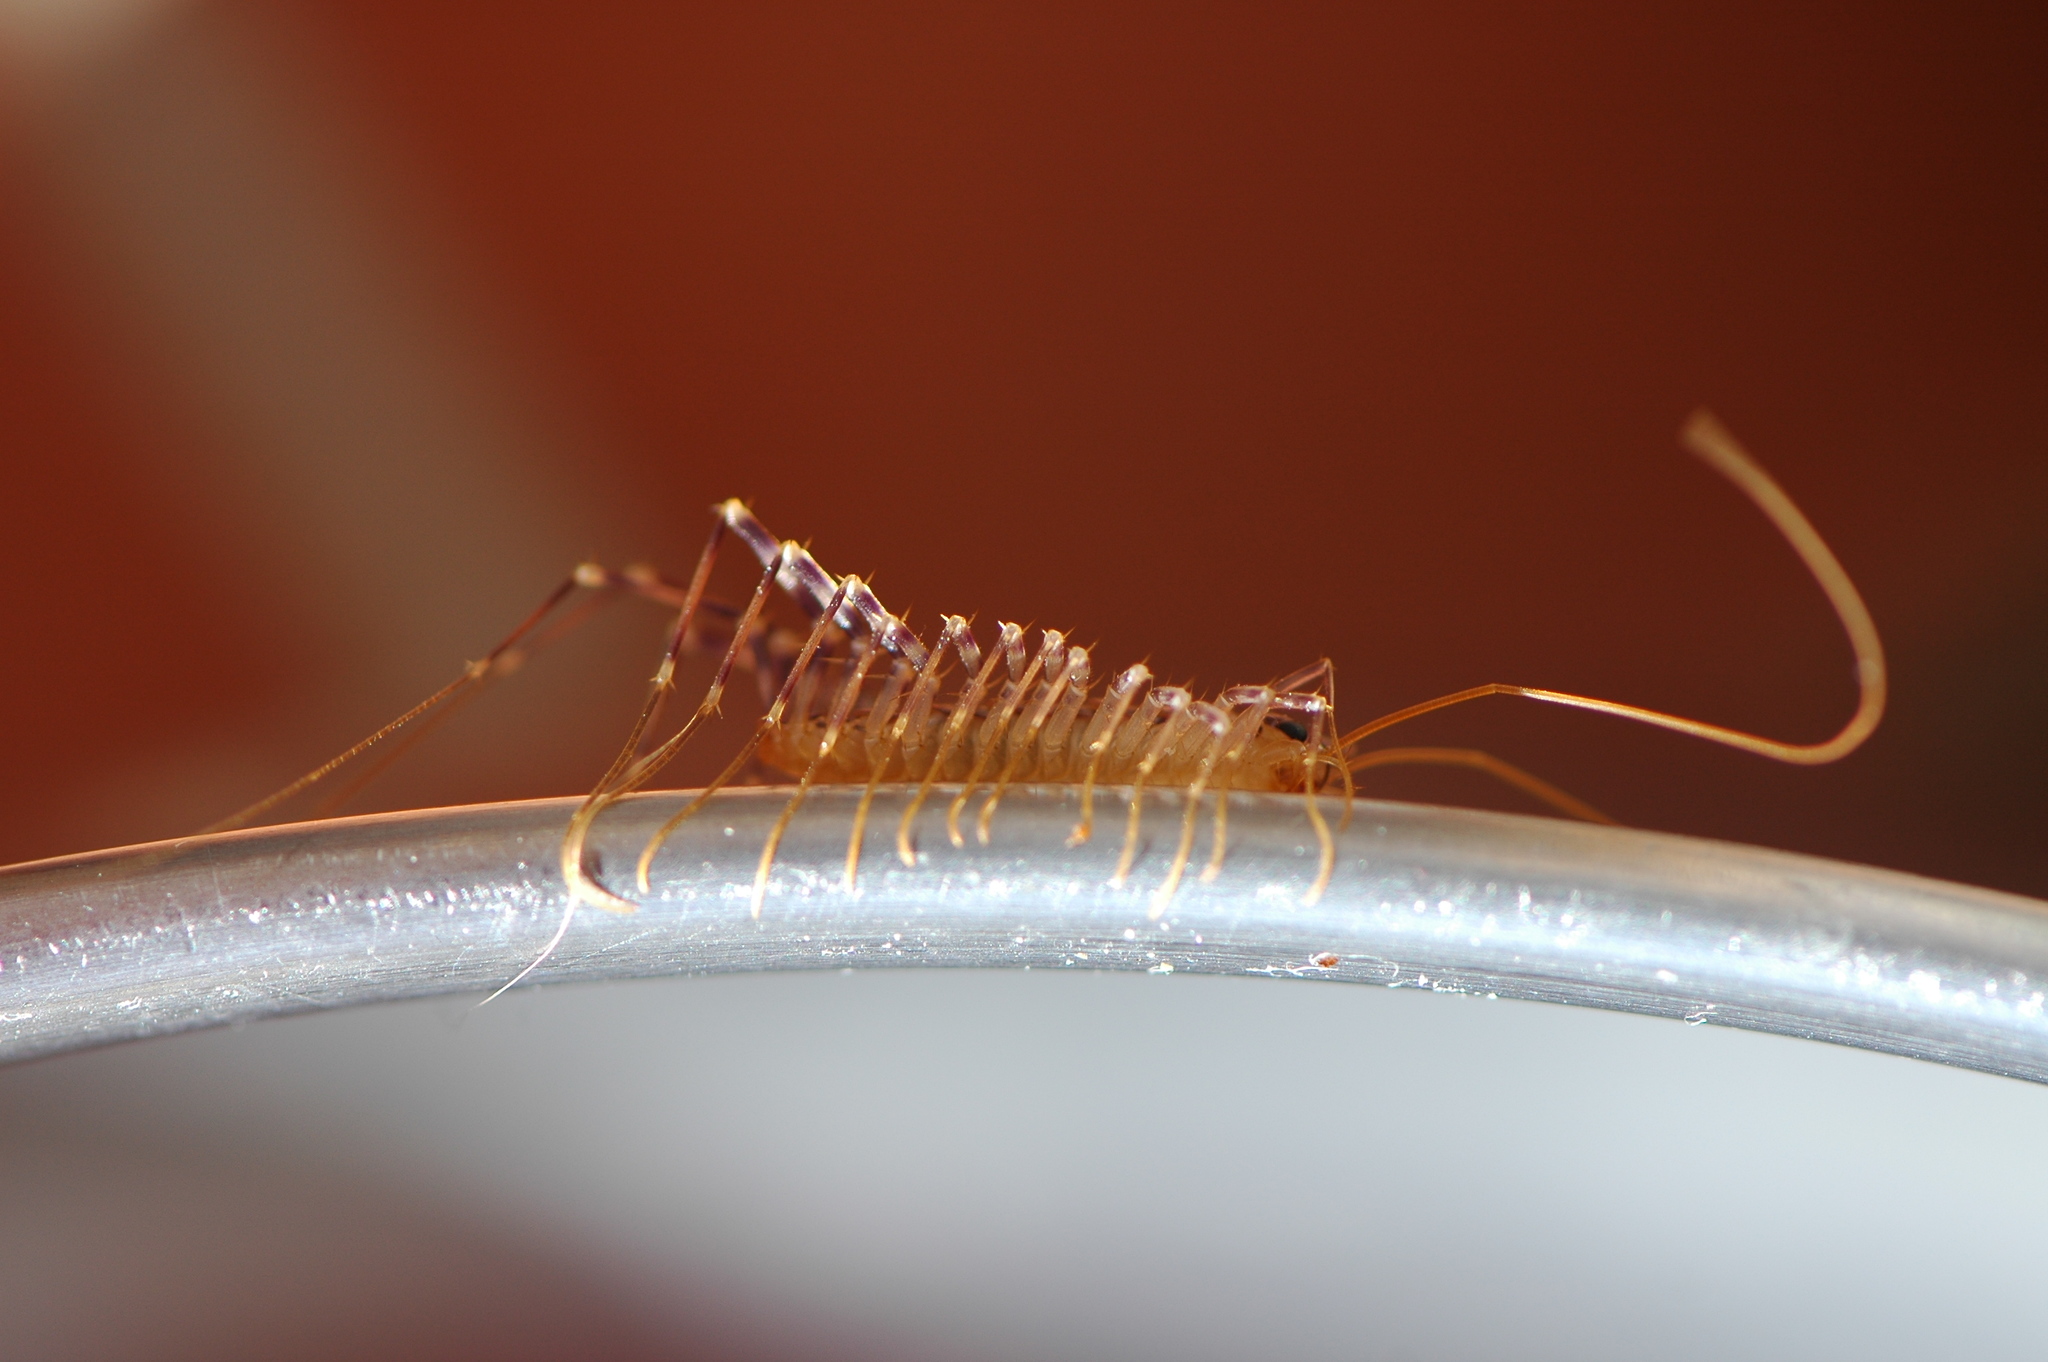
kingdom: Animalia
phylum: Arthropoda
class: Chilopoda
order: Scutigeromorpha
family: Scutigeridae
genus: Scutigera
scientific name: Scutigera coleoptrata
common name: House centipede
